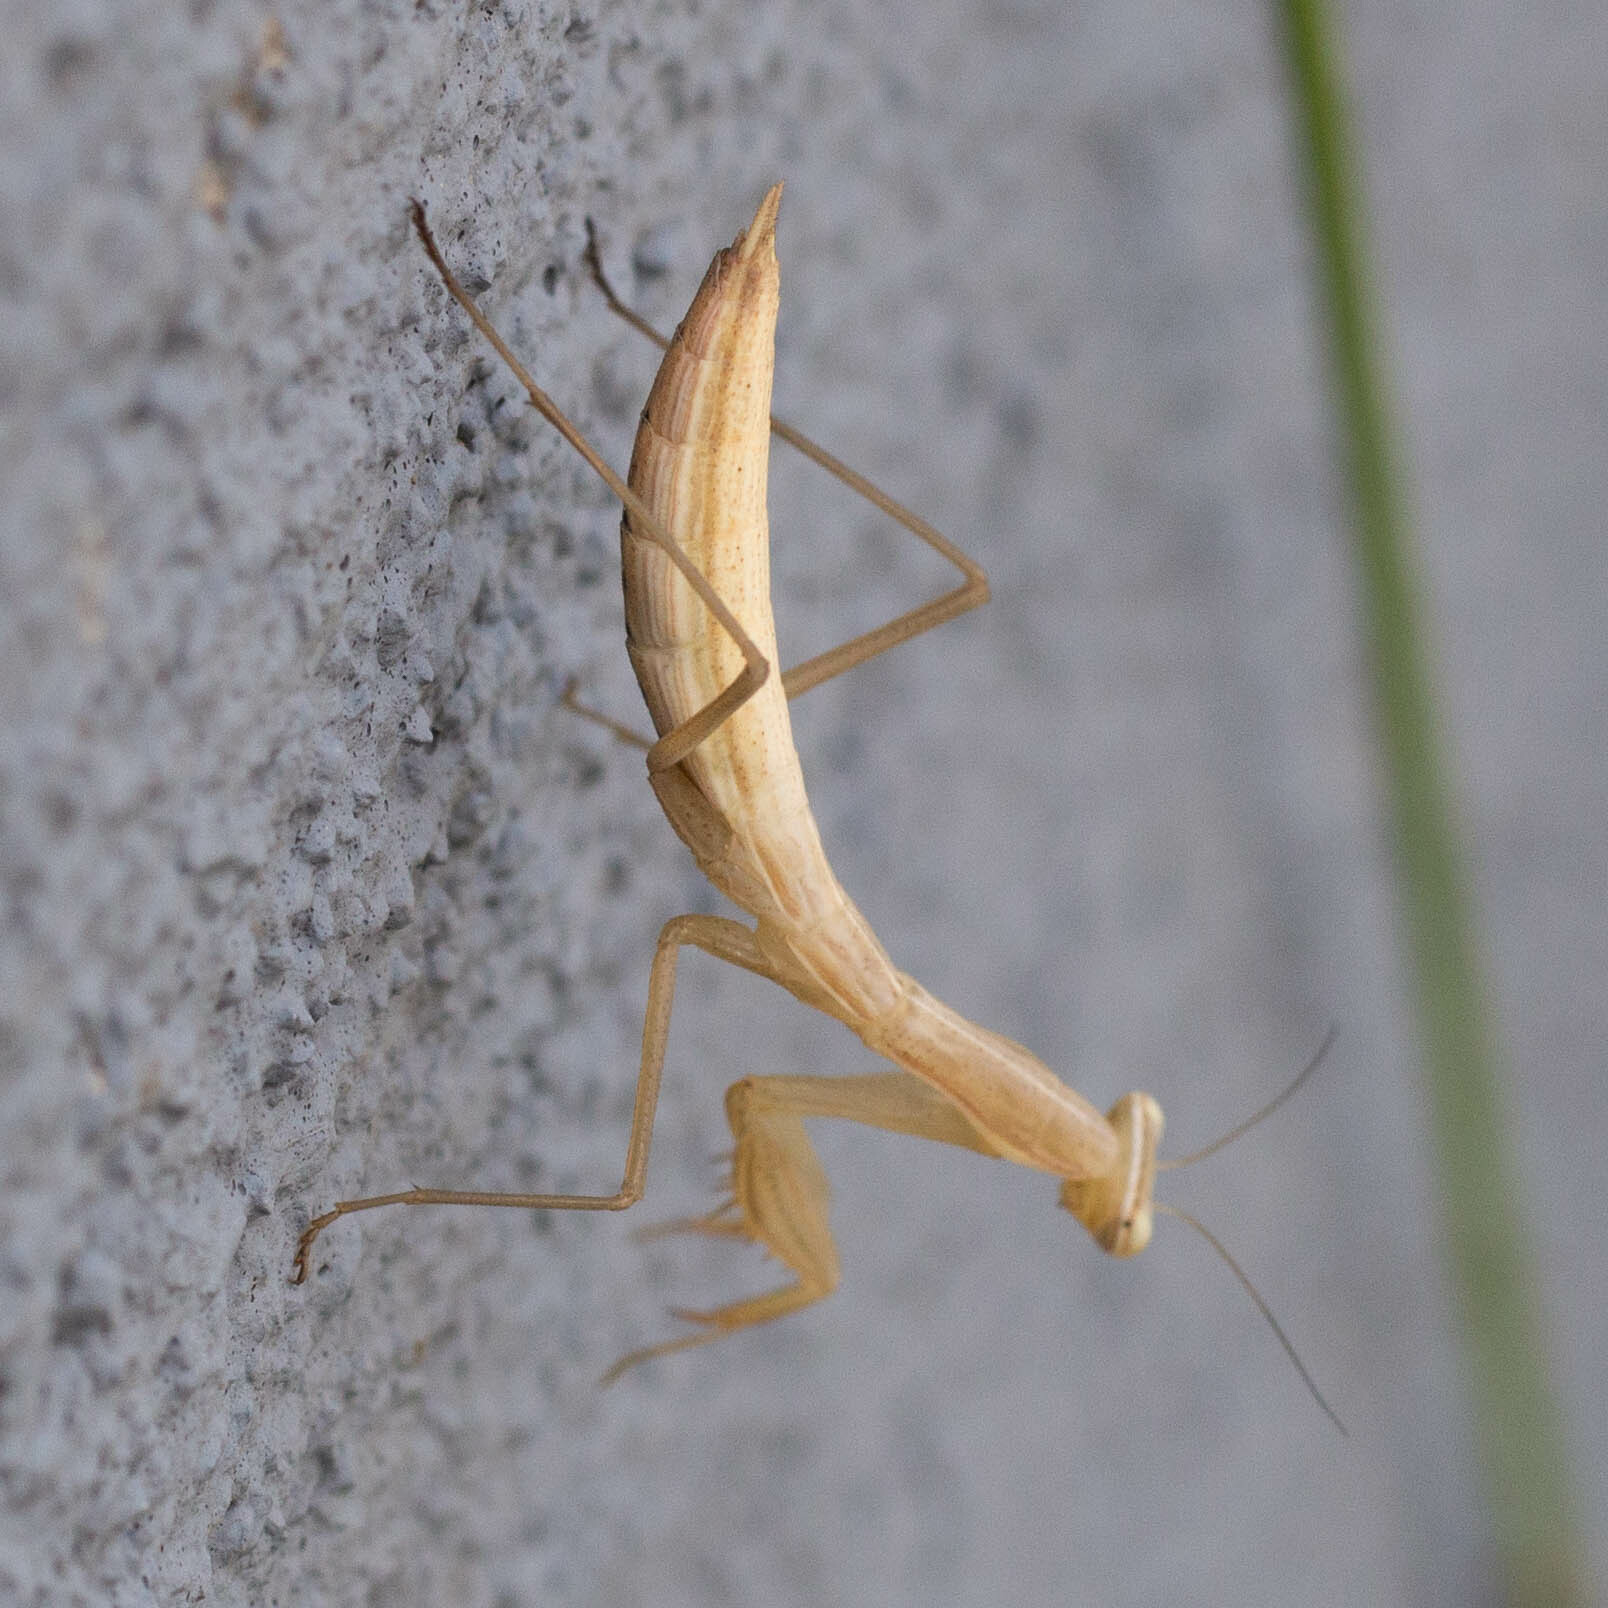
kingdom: Animalia
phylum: Arthropoda
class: Insecta
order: Mantodea
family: Mantidae
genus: Mantis
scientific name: Mantis religiosa
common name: Praying mantis
